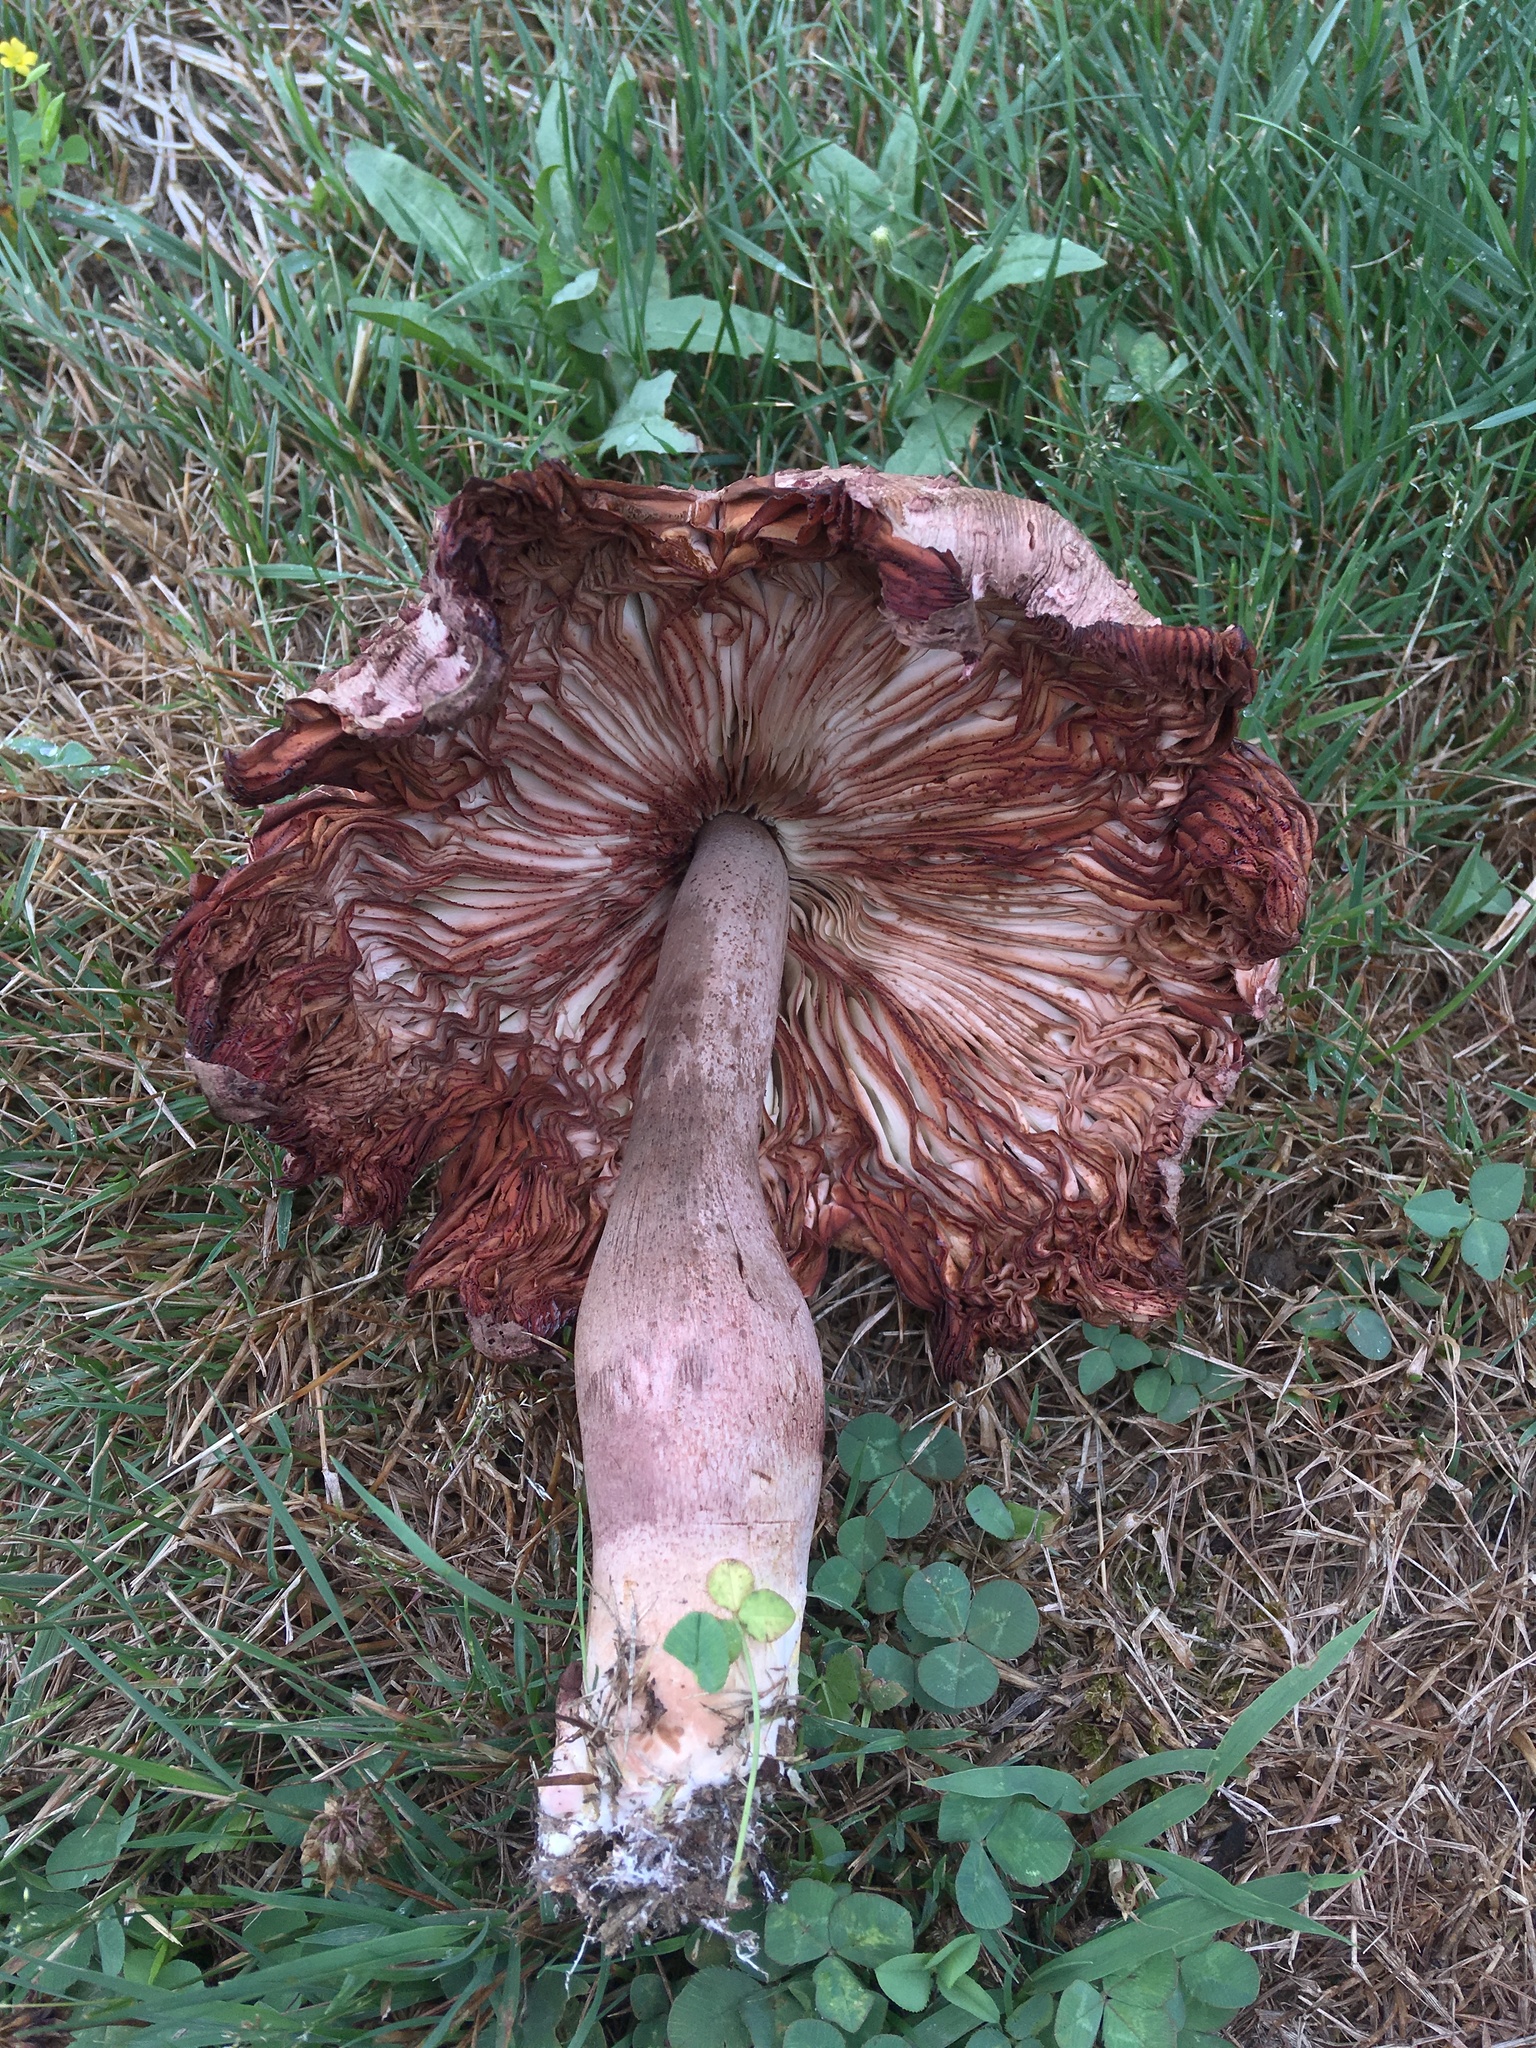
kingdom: Fungi
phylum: Basidiomycota
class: Agaricomycetes
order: Agaricales
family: Agaricaceae
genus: Leucoagaricus
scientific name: Leucoagaricus americanus
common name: Reddening lepiota
